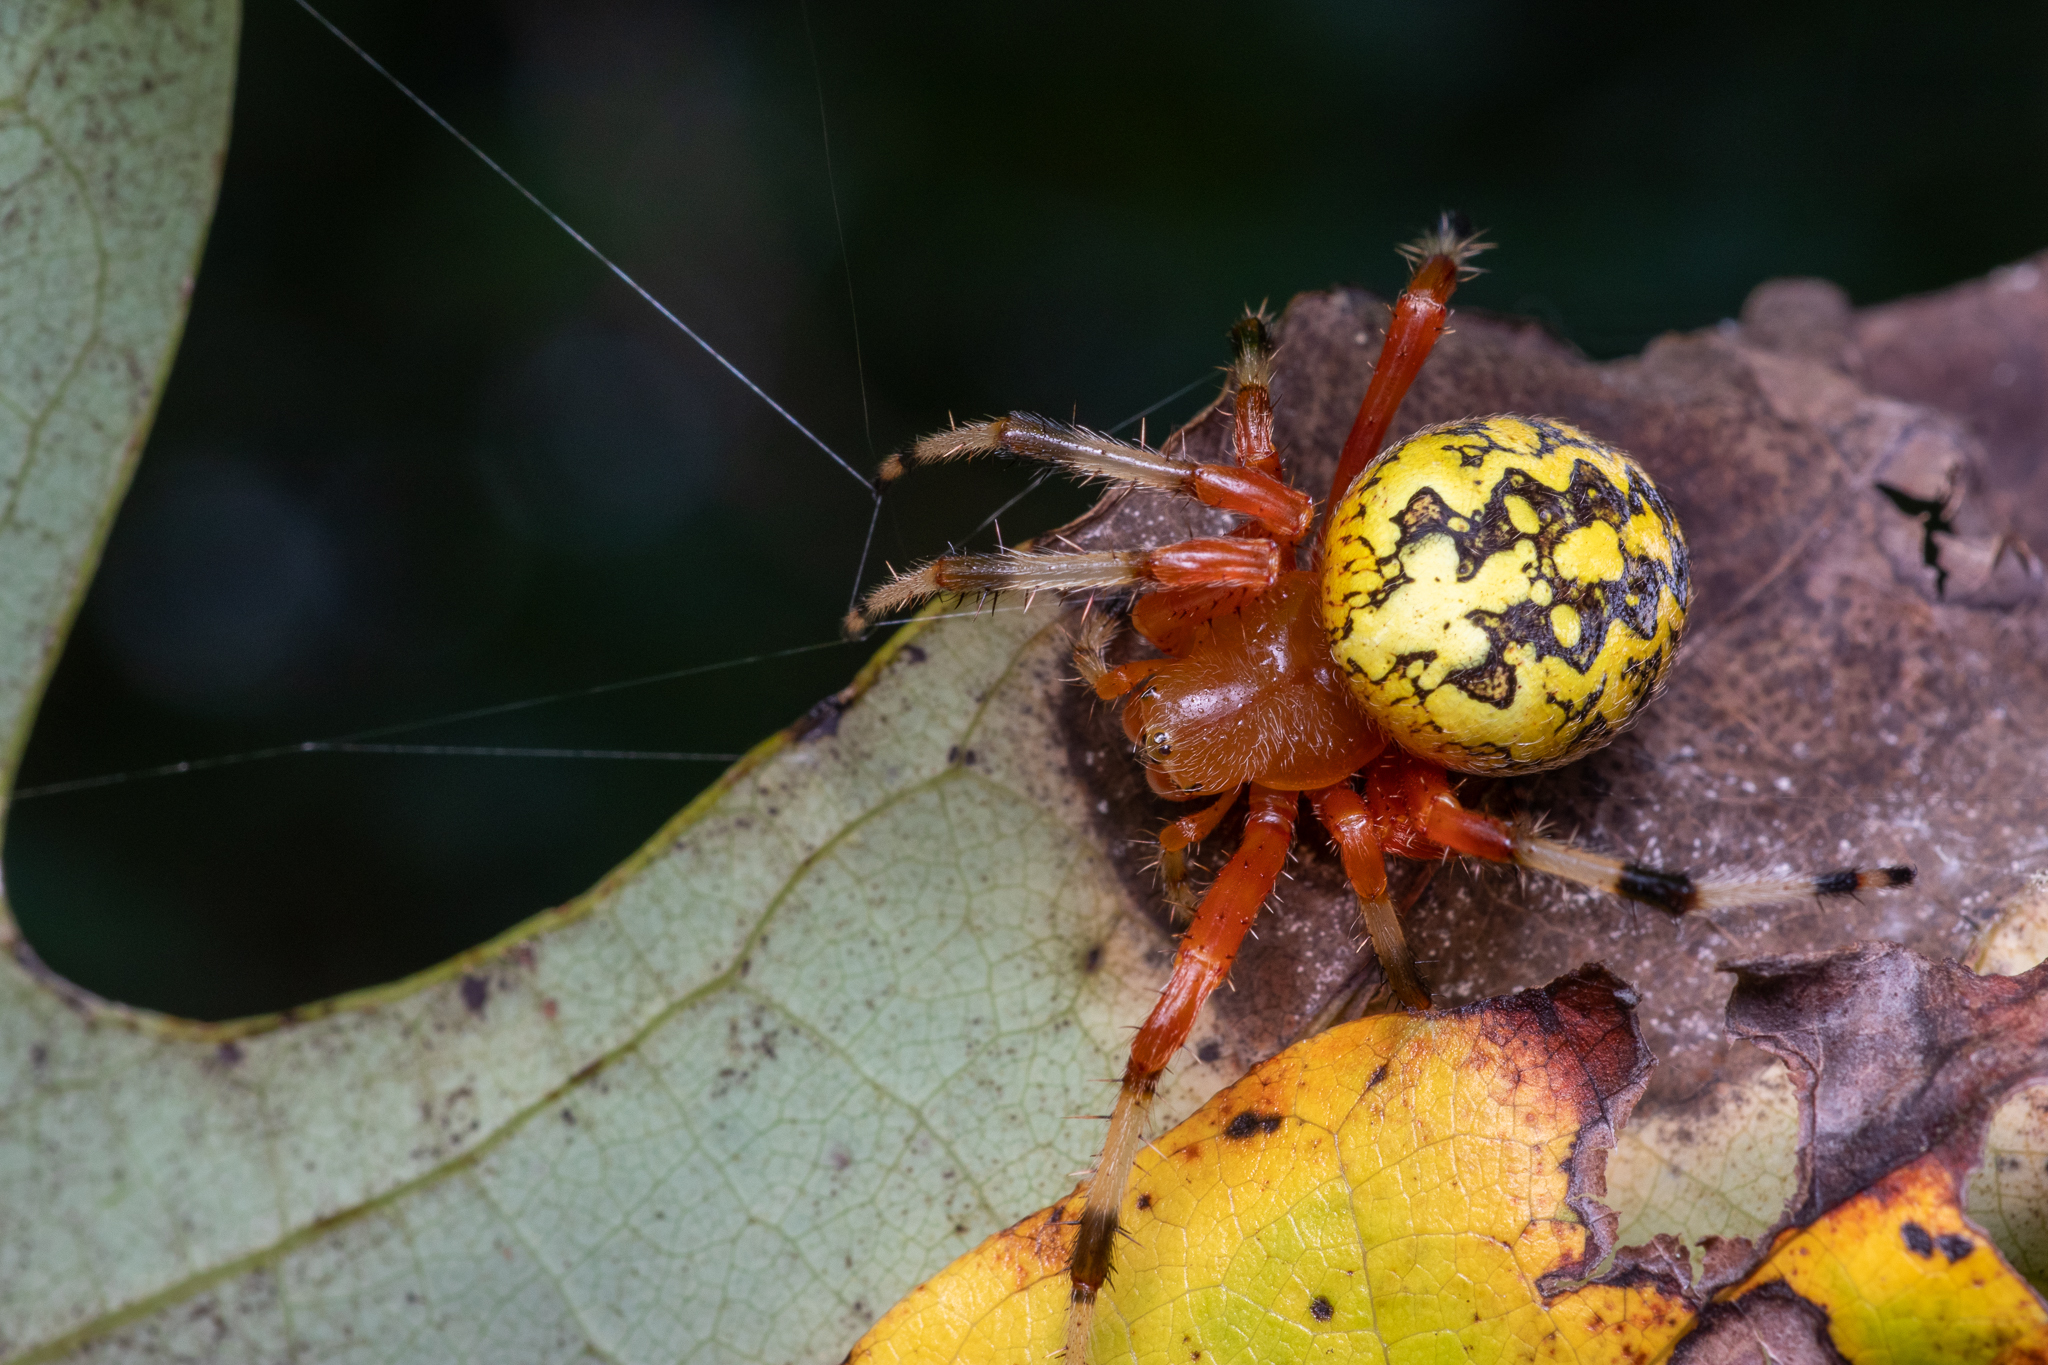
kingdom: Animalia
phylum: Arthropoda
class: Arachnida
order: Araneae
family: Araneidae
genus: Araneus
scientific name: Araneus marmoreus
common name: Marbled orbweaver
